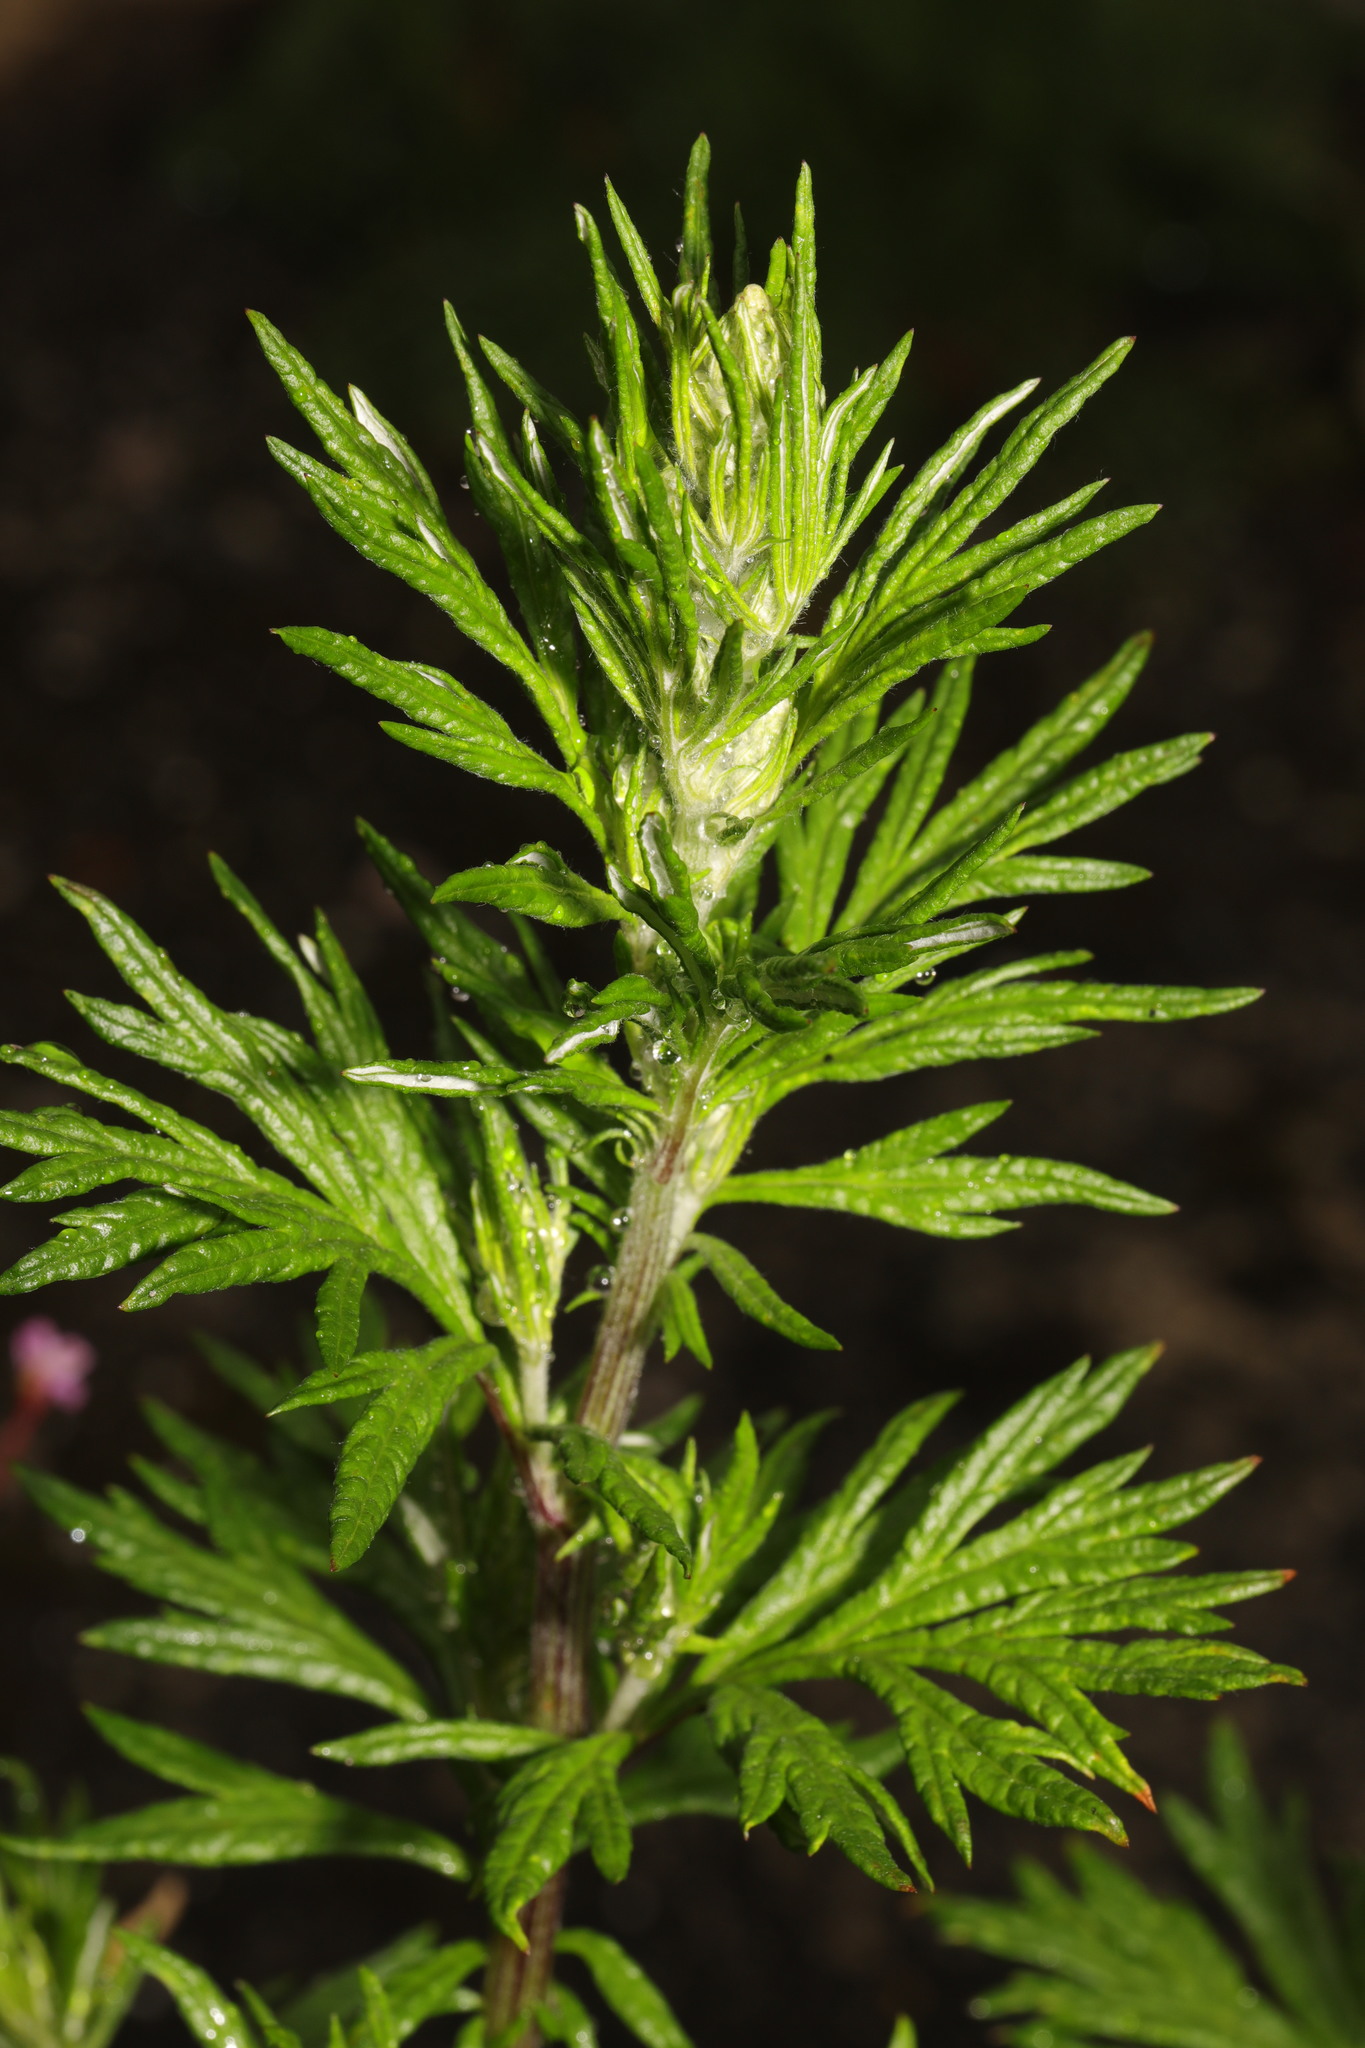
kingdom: Plantae
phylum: Tracheophyta
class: Magnoliopsida
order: Asterales
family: Asteraceae
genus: Artemisia
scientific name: Artemisia vulgaris
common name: Mugwort
